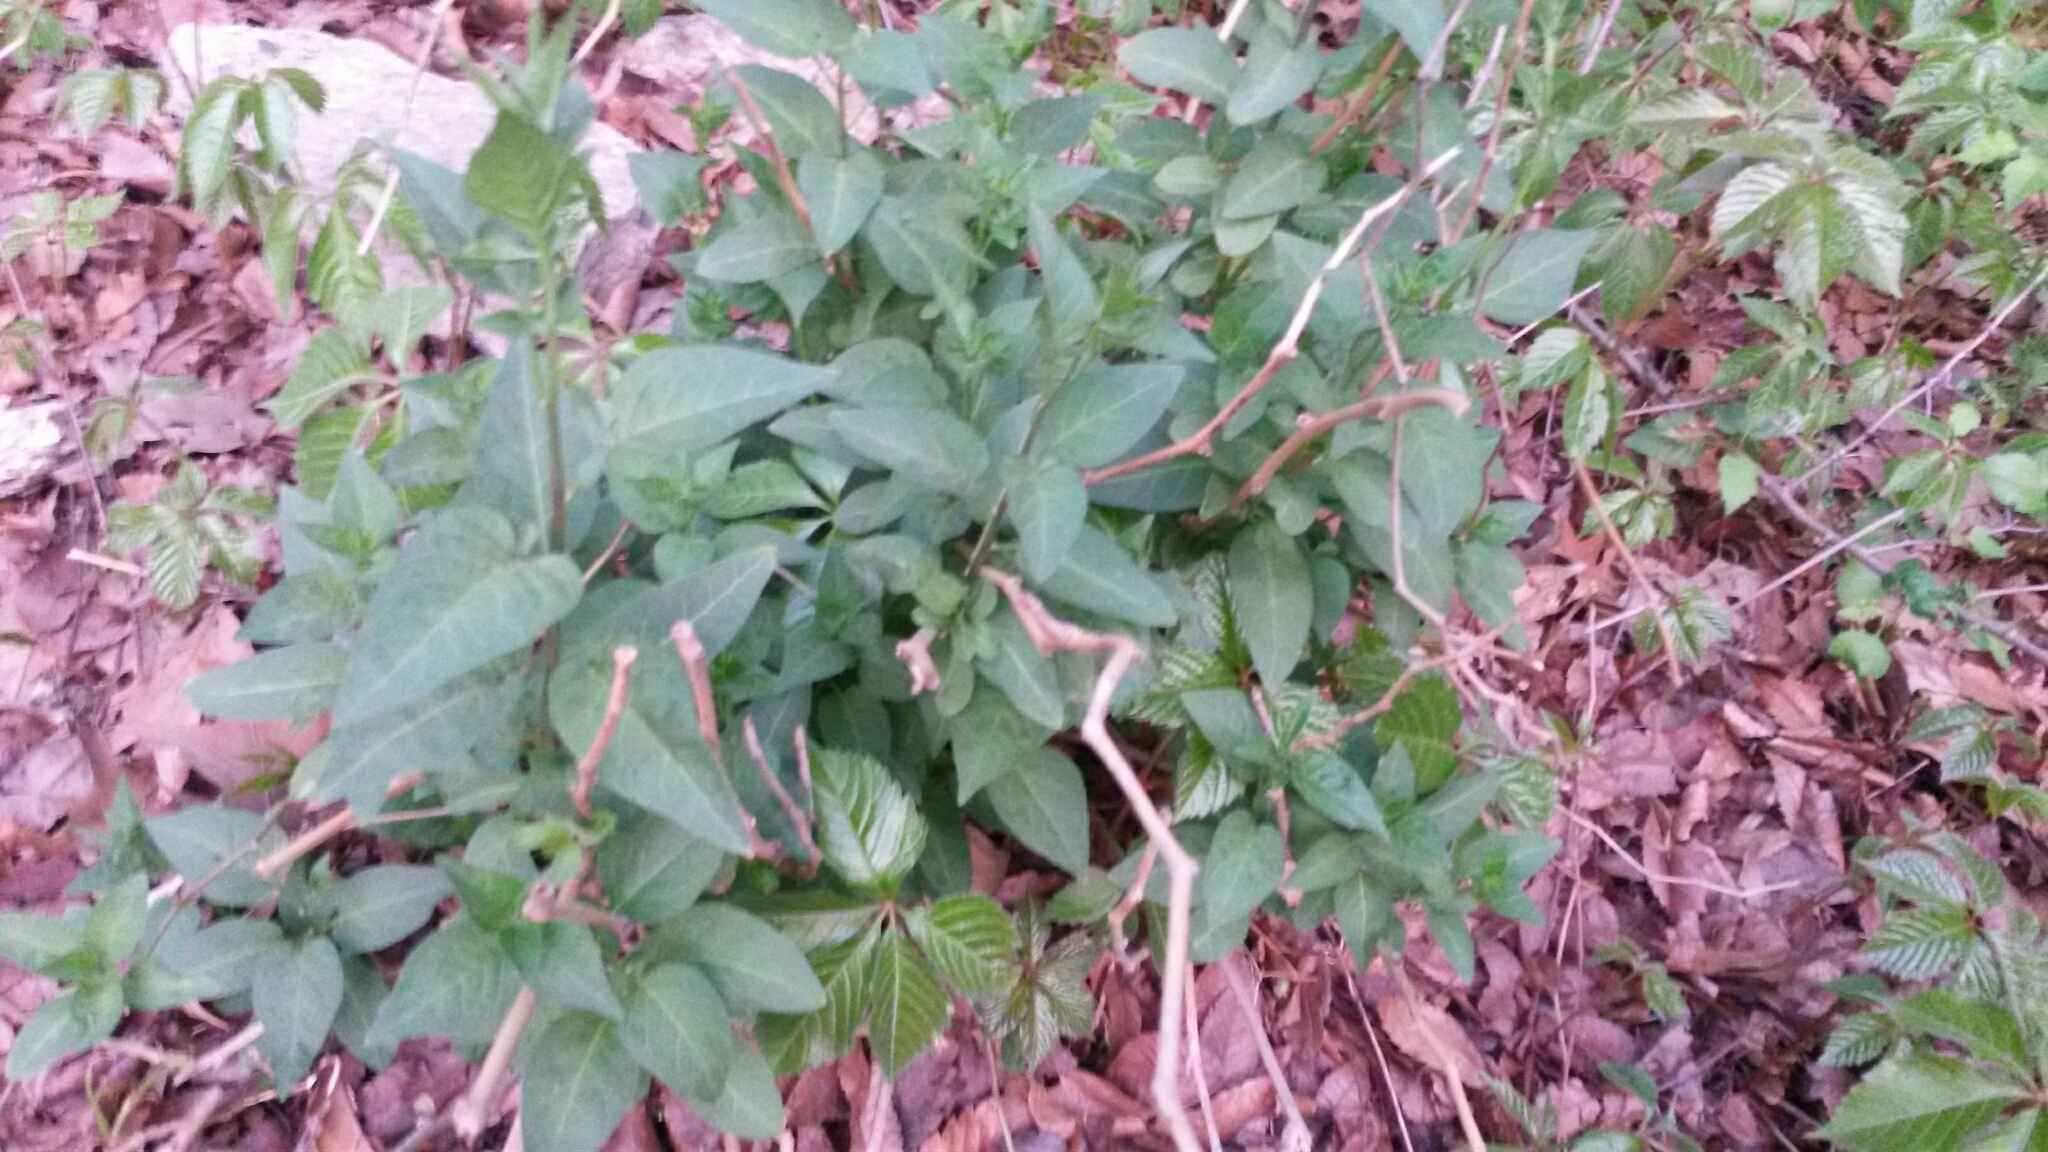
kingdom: Plantae
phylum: Tracheophyta
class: Magnoliopsida
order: Solanales
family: Solanaceae
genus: Solanum
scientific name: Solanum dulcamara
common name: Climbing nightshade
